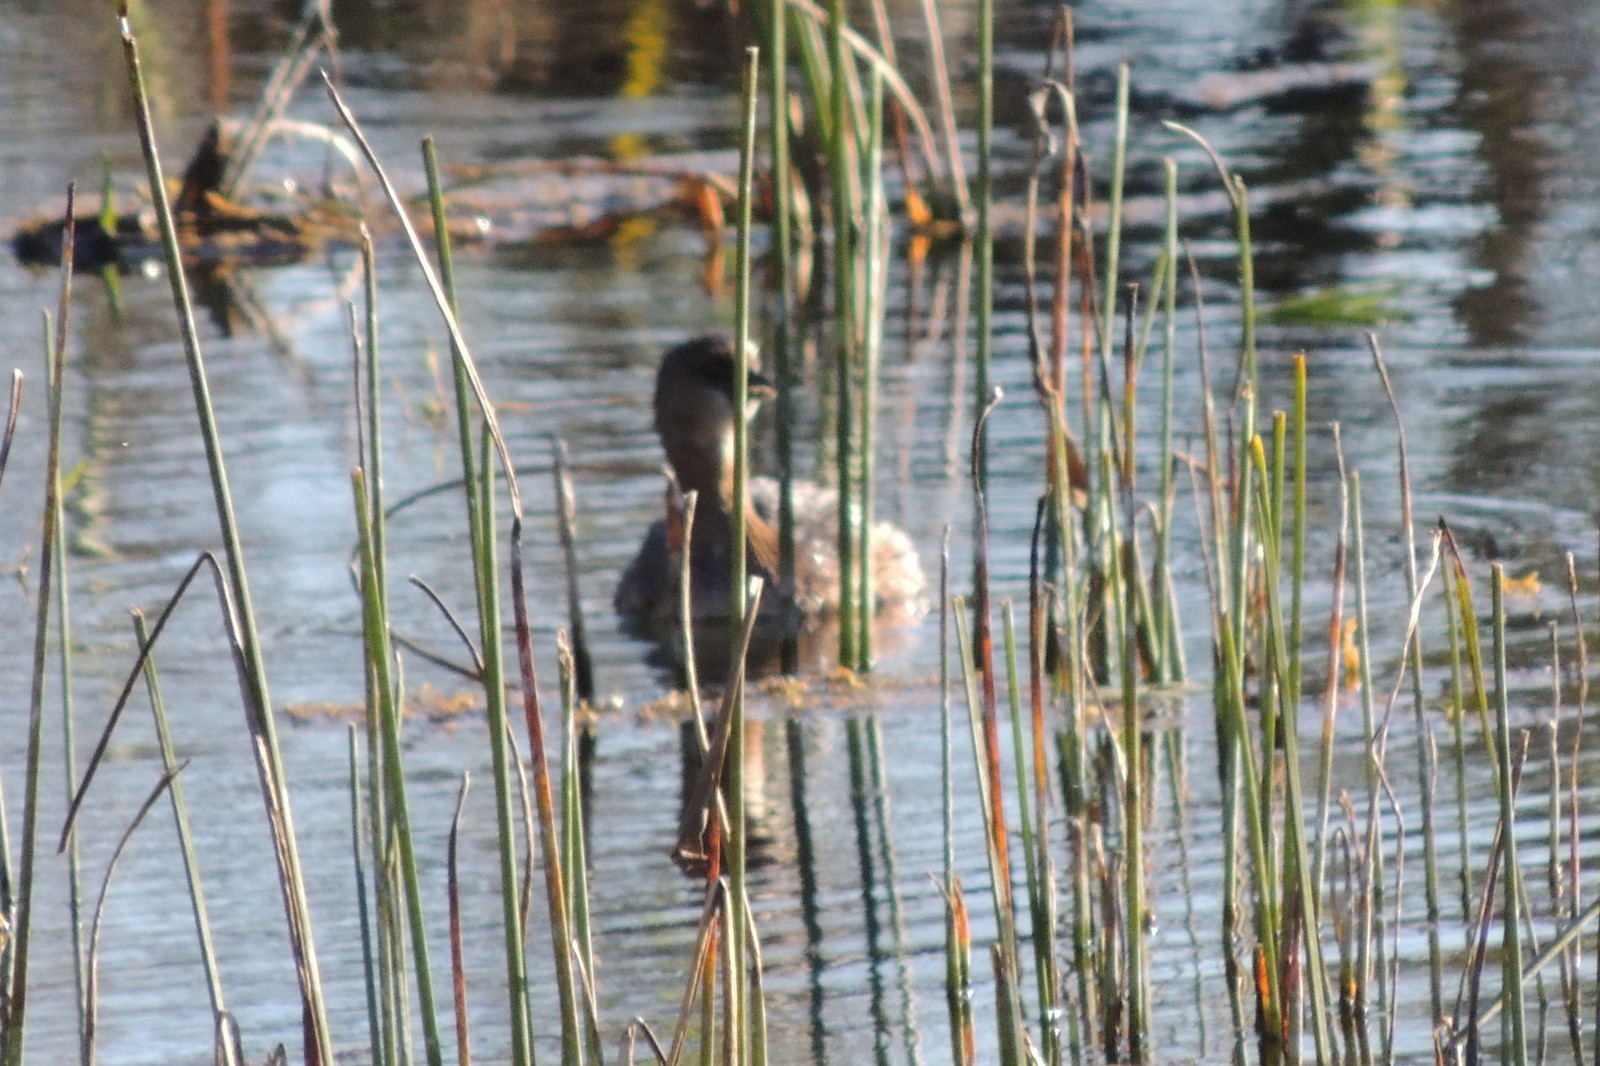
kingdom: Animalia
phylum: Chordata
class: Aves
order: Podicipediformes
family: Podicipedidae
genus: Podilymbus
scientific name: Podilymbus podiceps
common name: Pied-billed grebe
